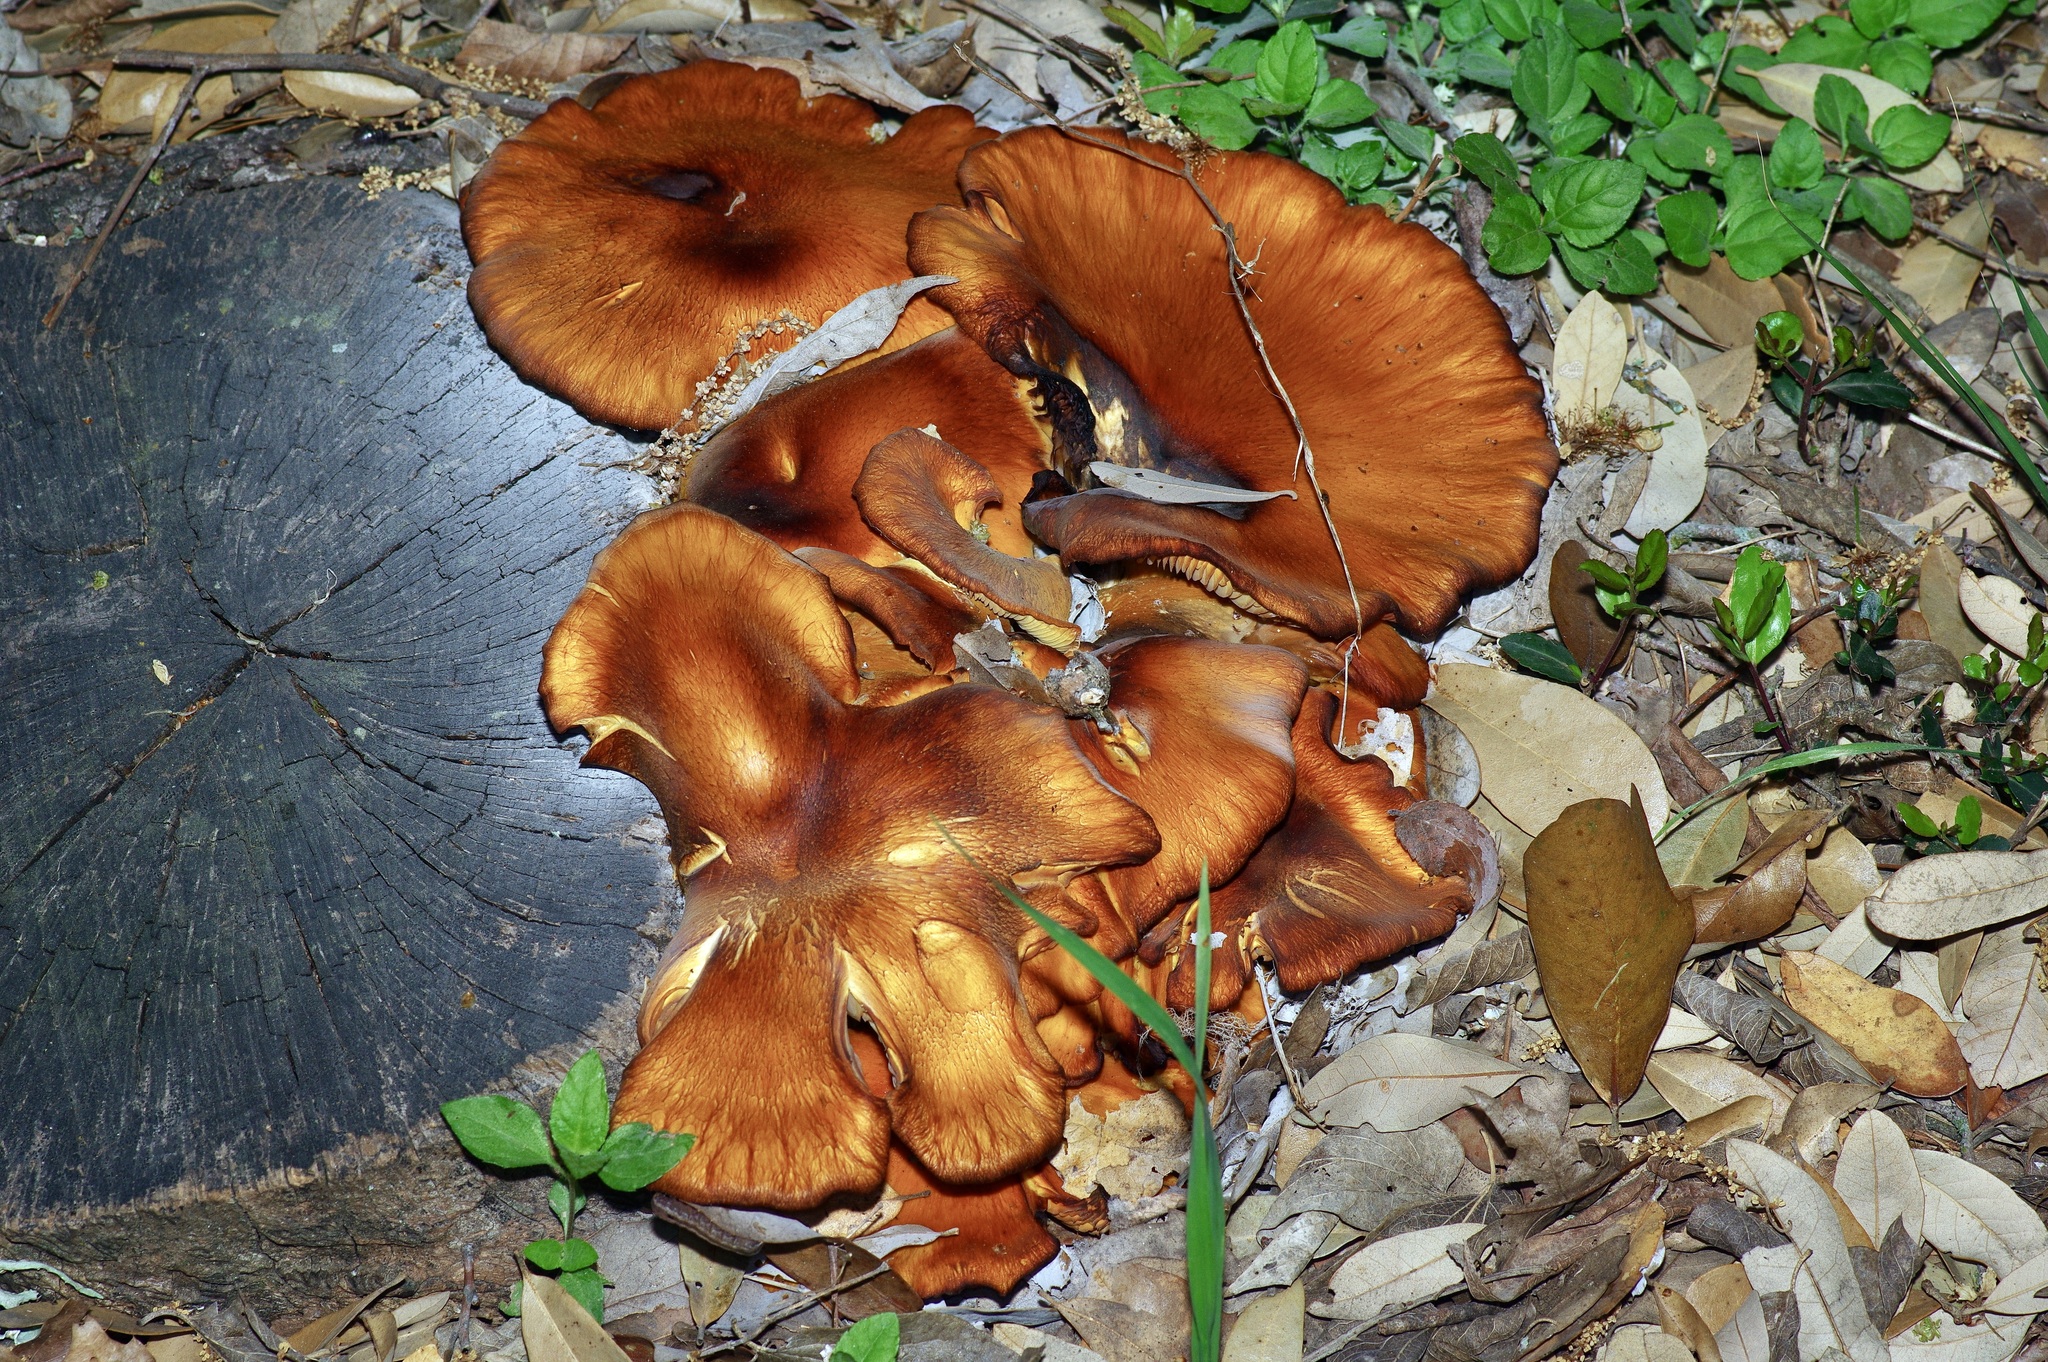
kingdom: Fungi
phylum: Basidiomycota
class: Agaricomycetes
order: Agaricales
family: Omphalotaceae
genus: Omphalotus
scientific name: Omphalotus subilludens
